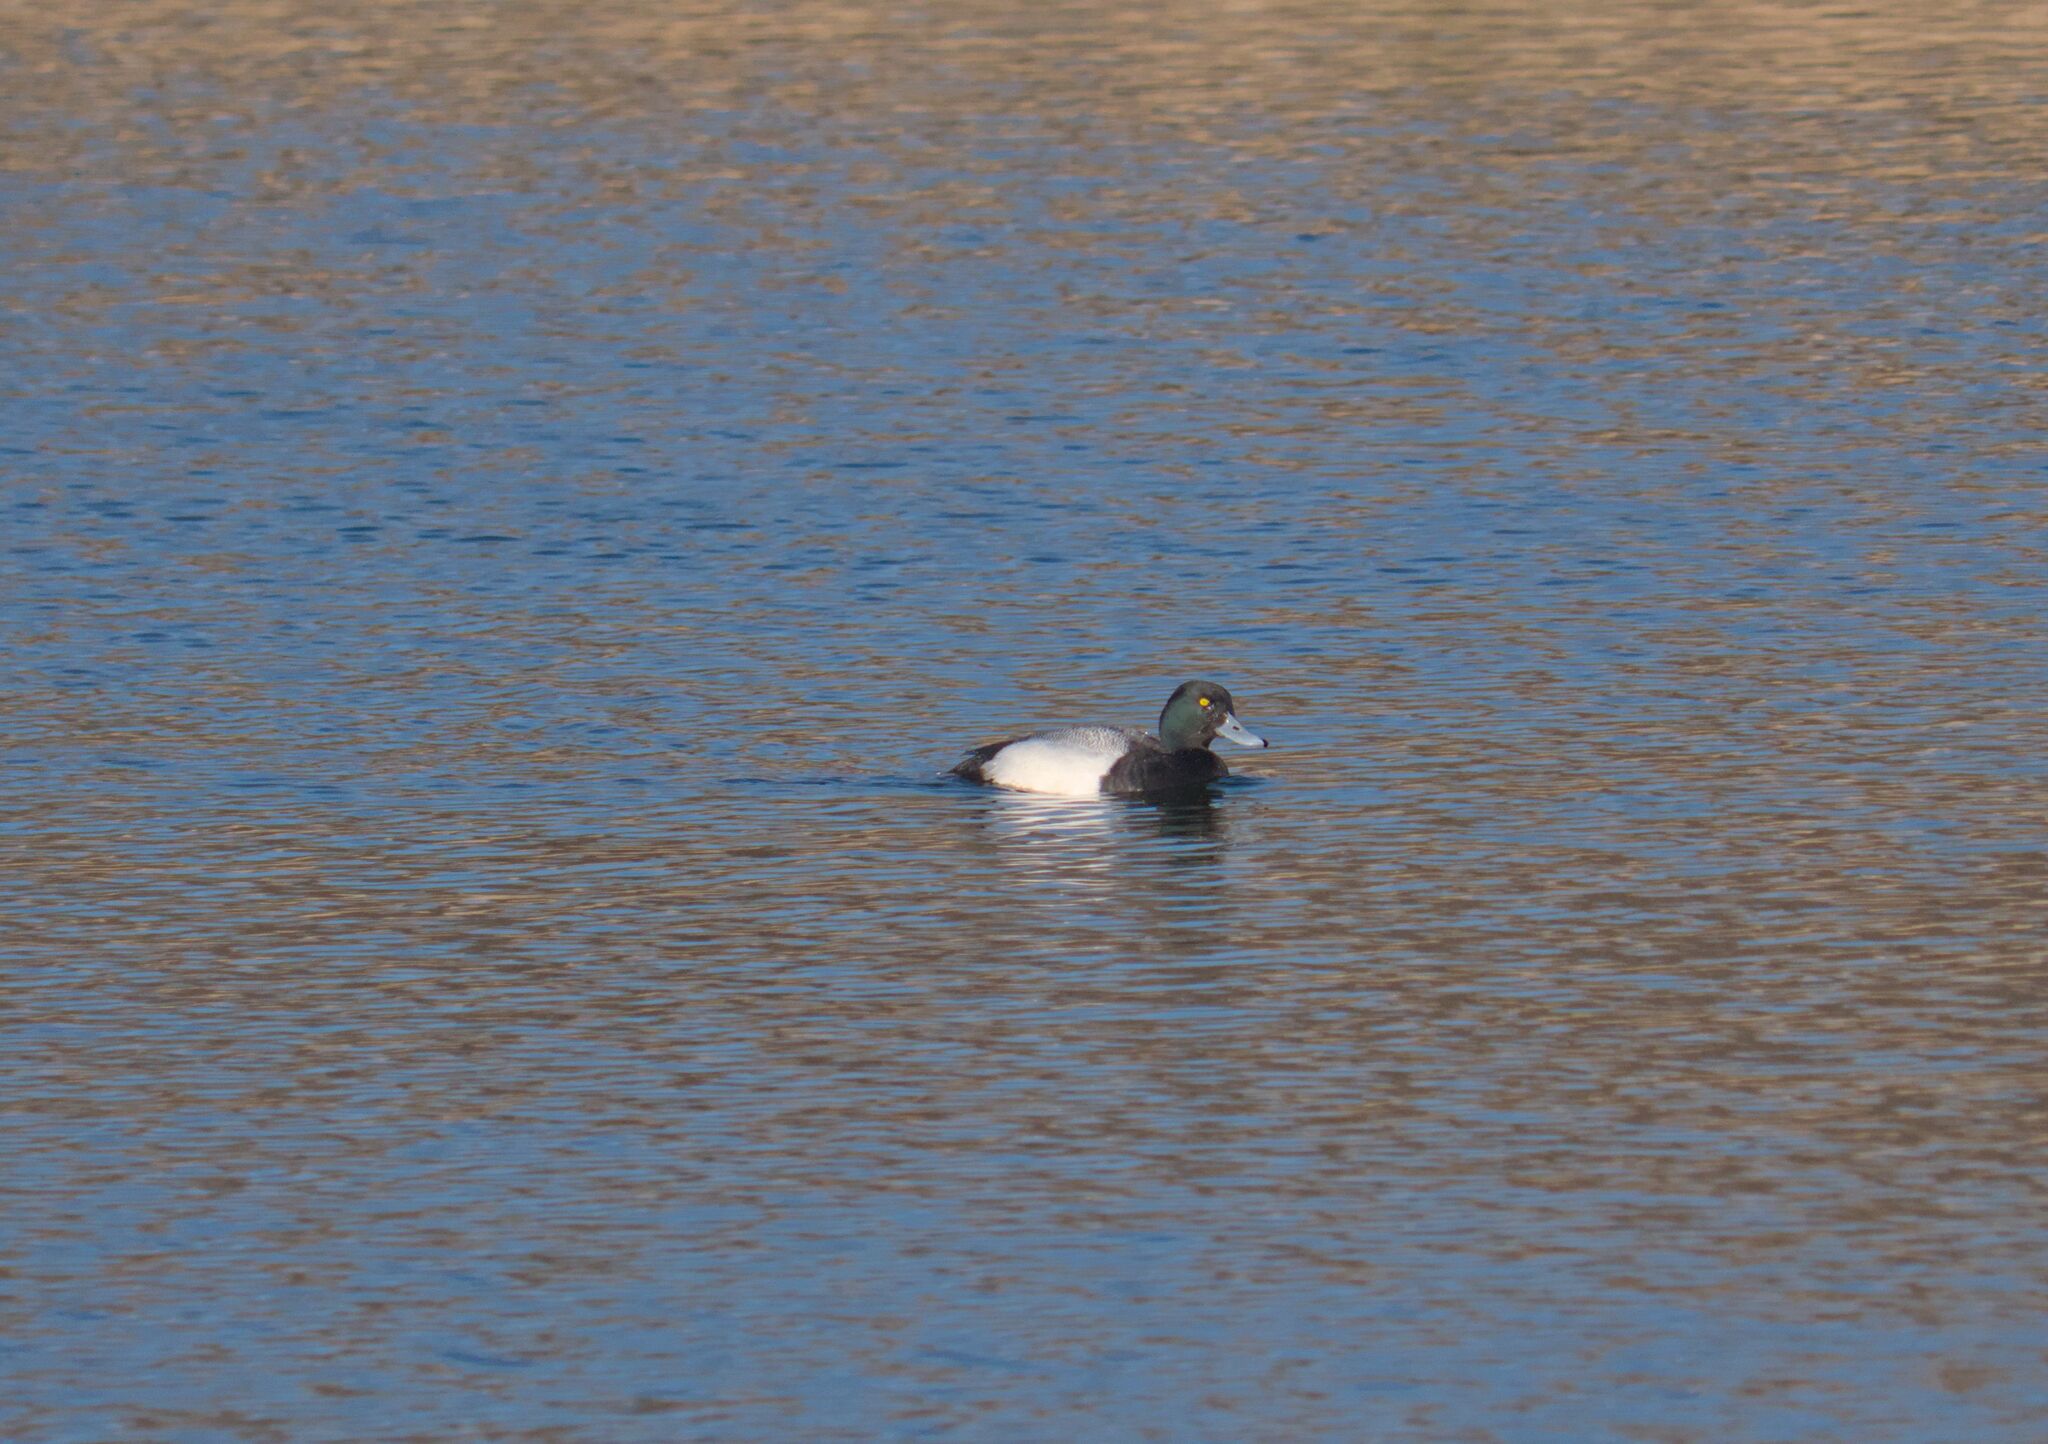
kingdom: Animalia
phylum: Chordata
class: Aves
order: Anseriformes
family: Anatidae
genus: Aythya
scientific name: Aythya marila
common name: Greater scaup
